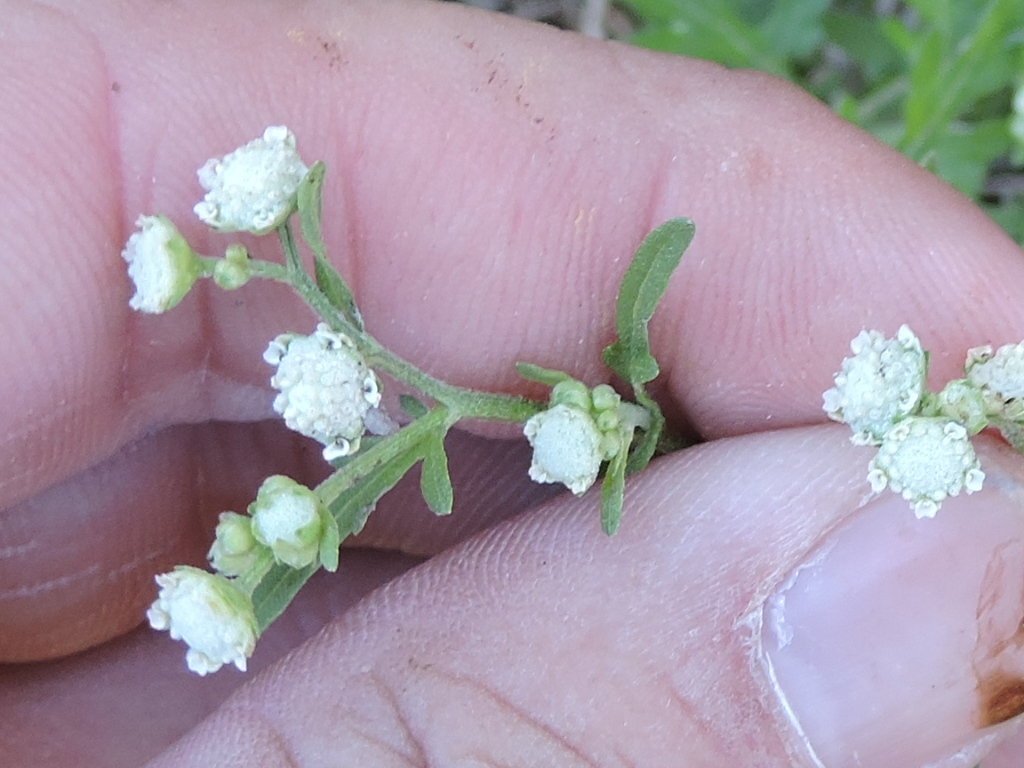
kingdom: Plantae
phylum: Tracheophyta
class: Magnoliopsida
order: Asterales
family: Asteraceae
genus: Parthenium
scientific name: Parthenium hysterophorus
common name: Santa maria feverfew
